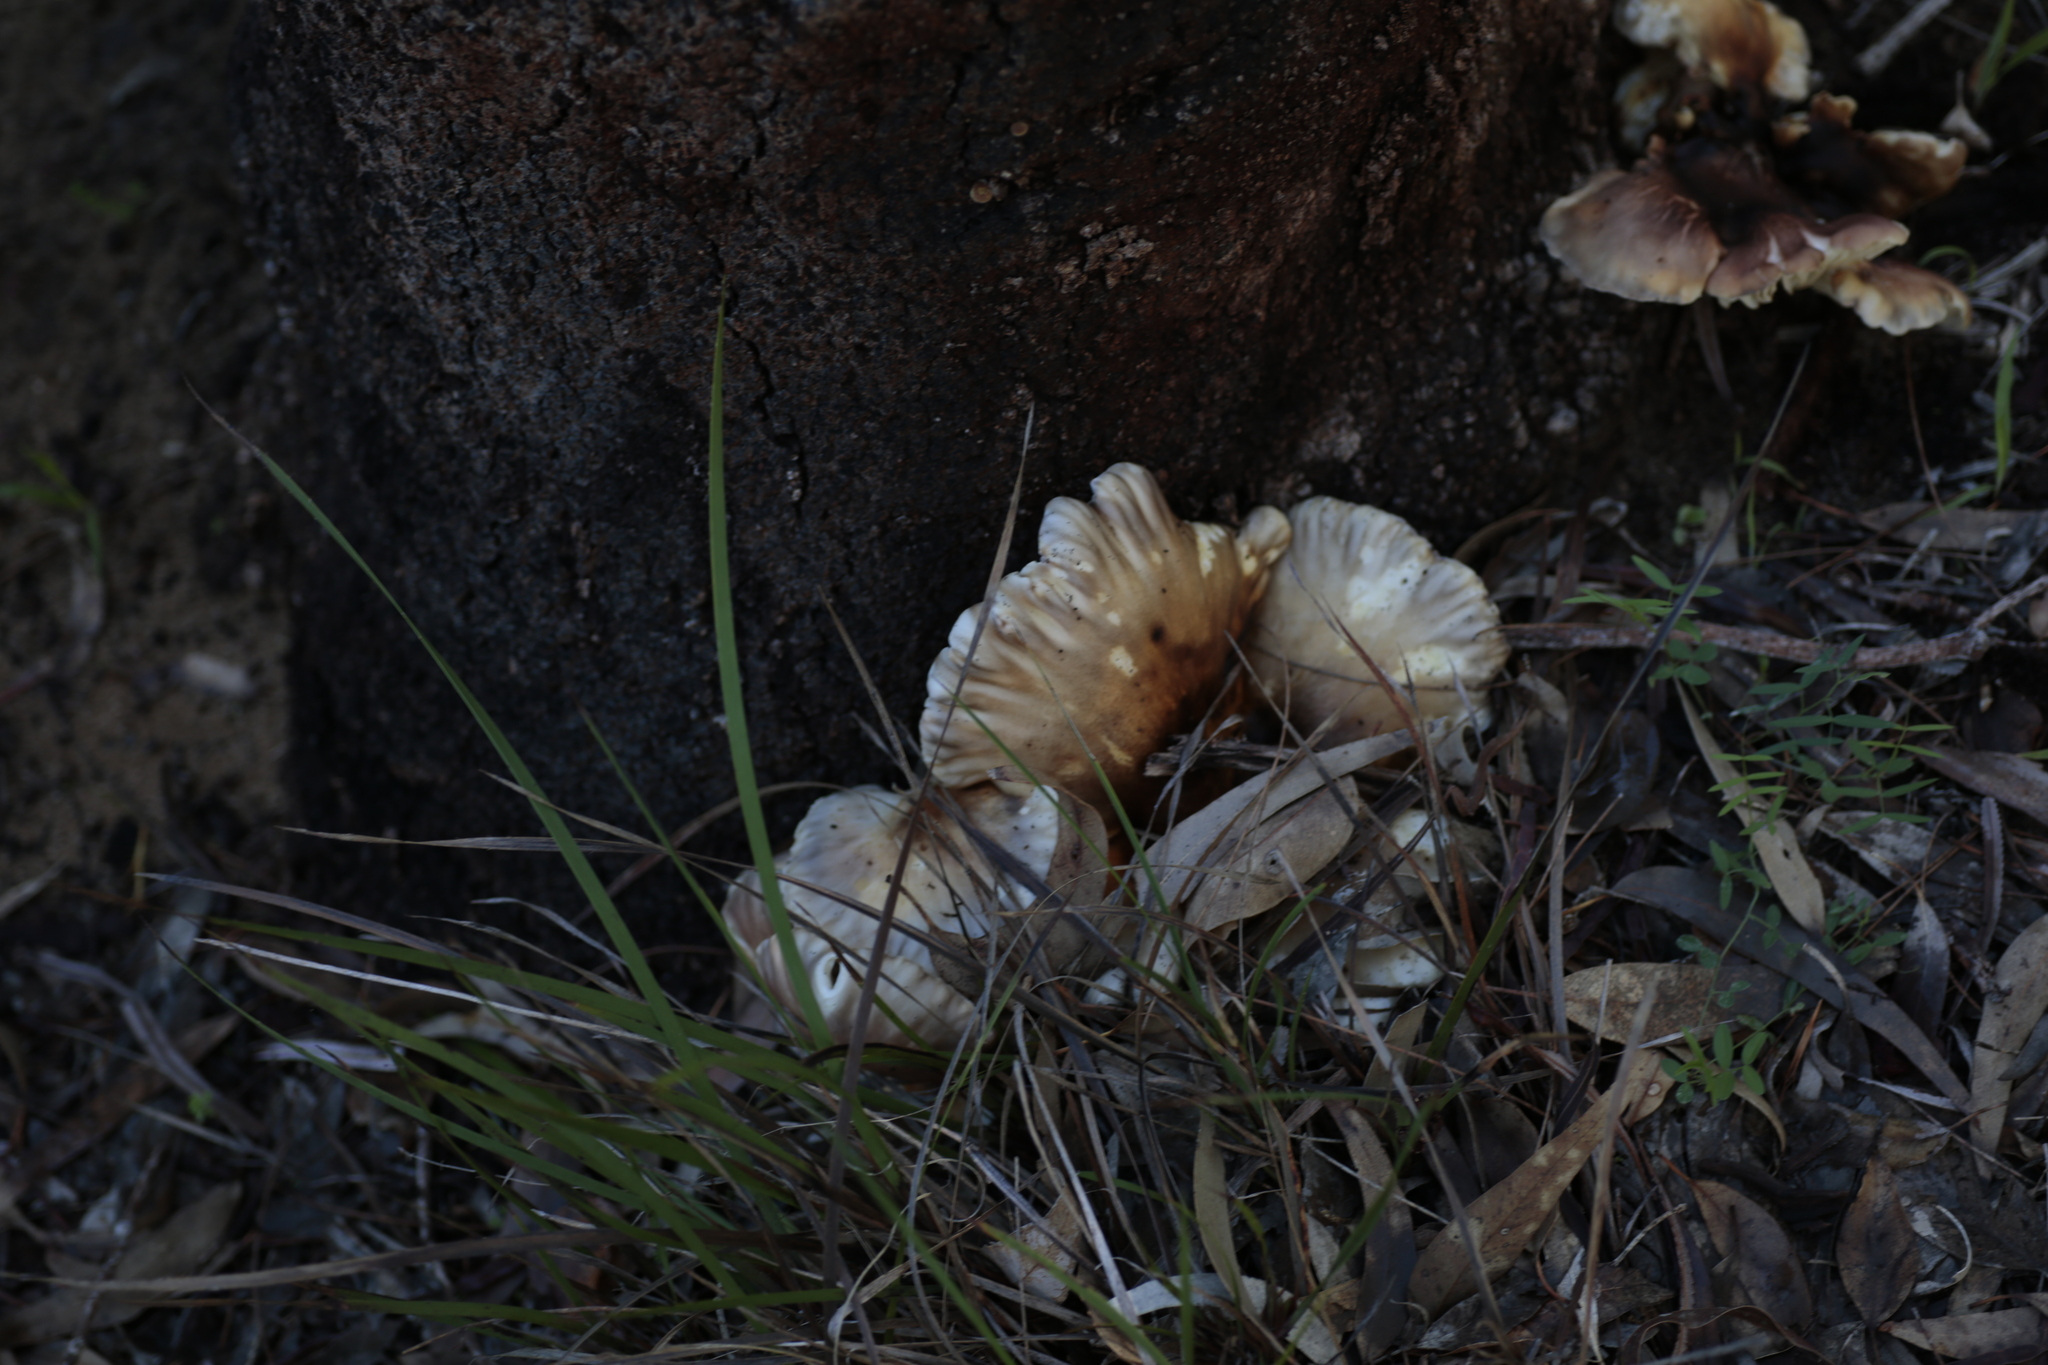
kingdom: Fungi
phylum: Basidiomycota
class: Agaricomycetes
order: Agaricales
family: Omphalotaceae
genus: Omphalotus
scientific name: Omphalotus nidiformis
